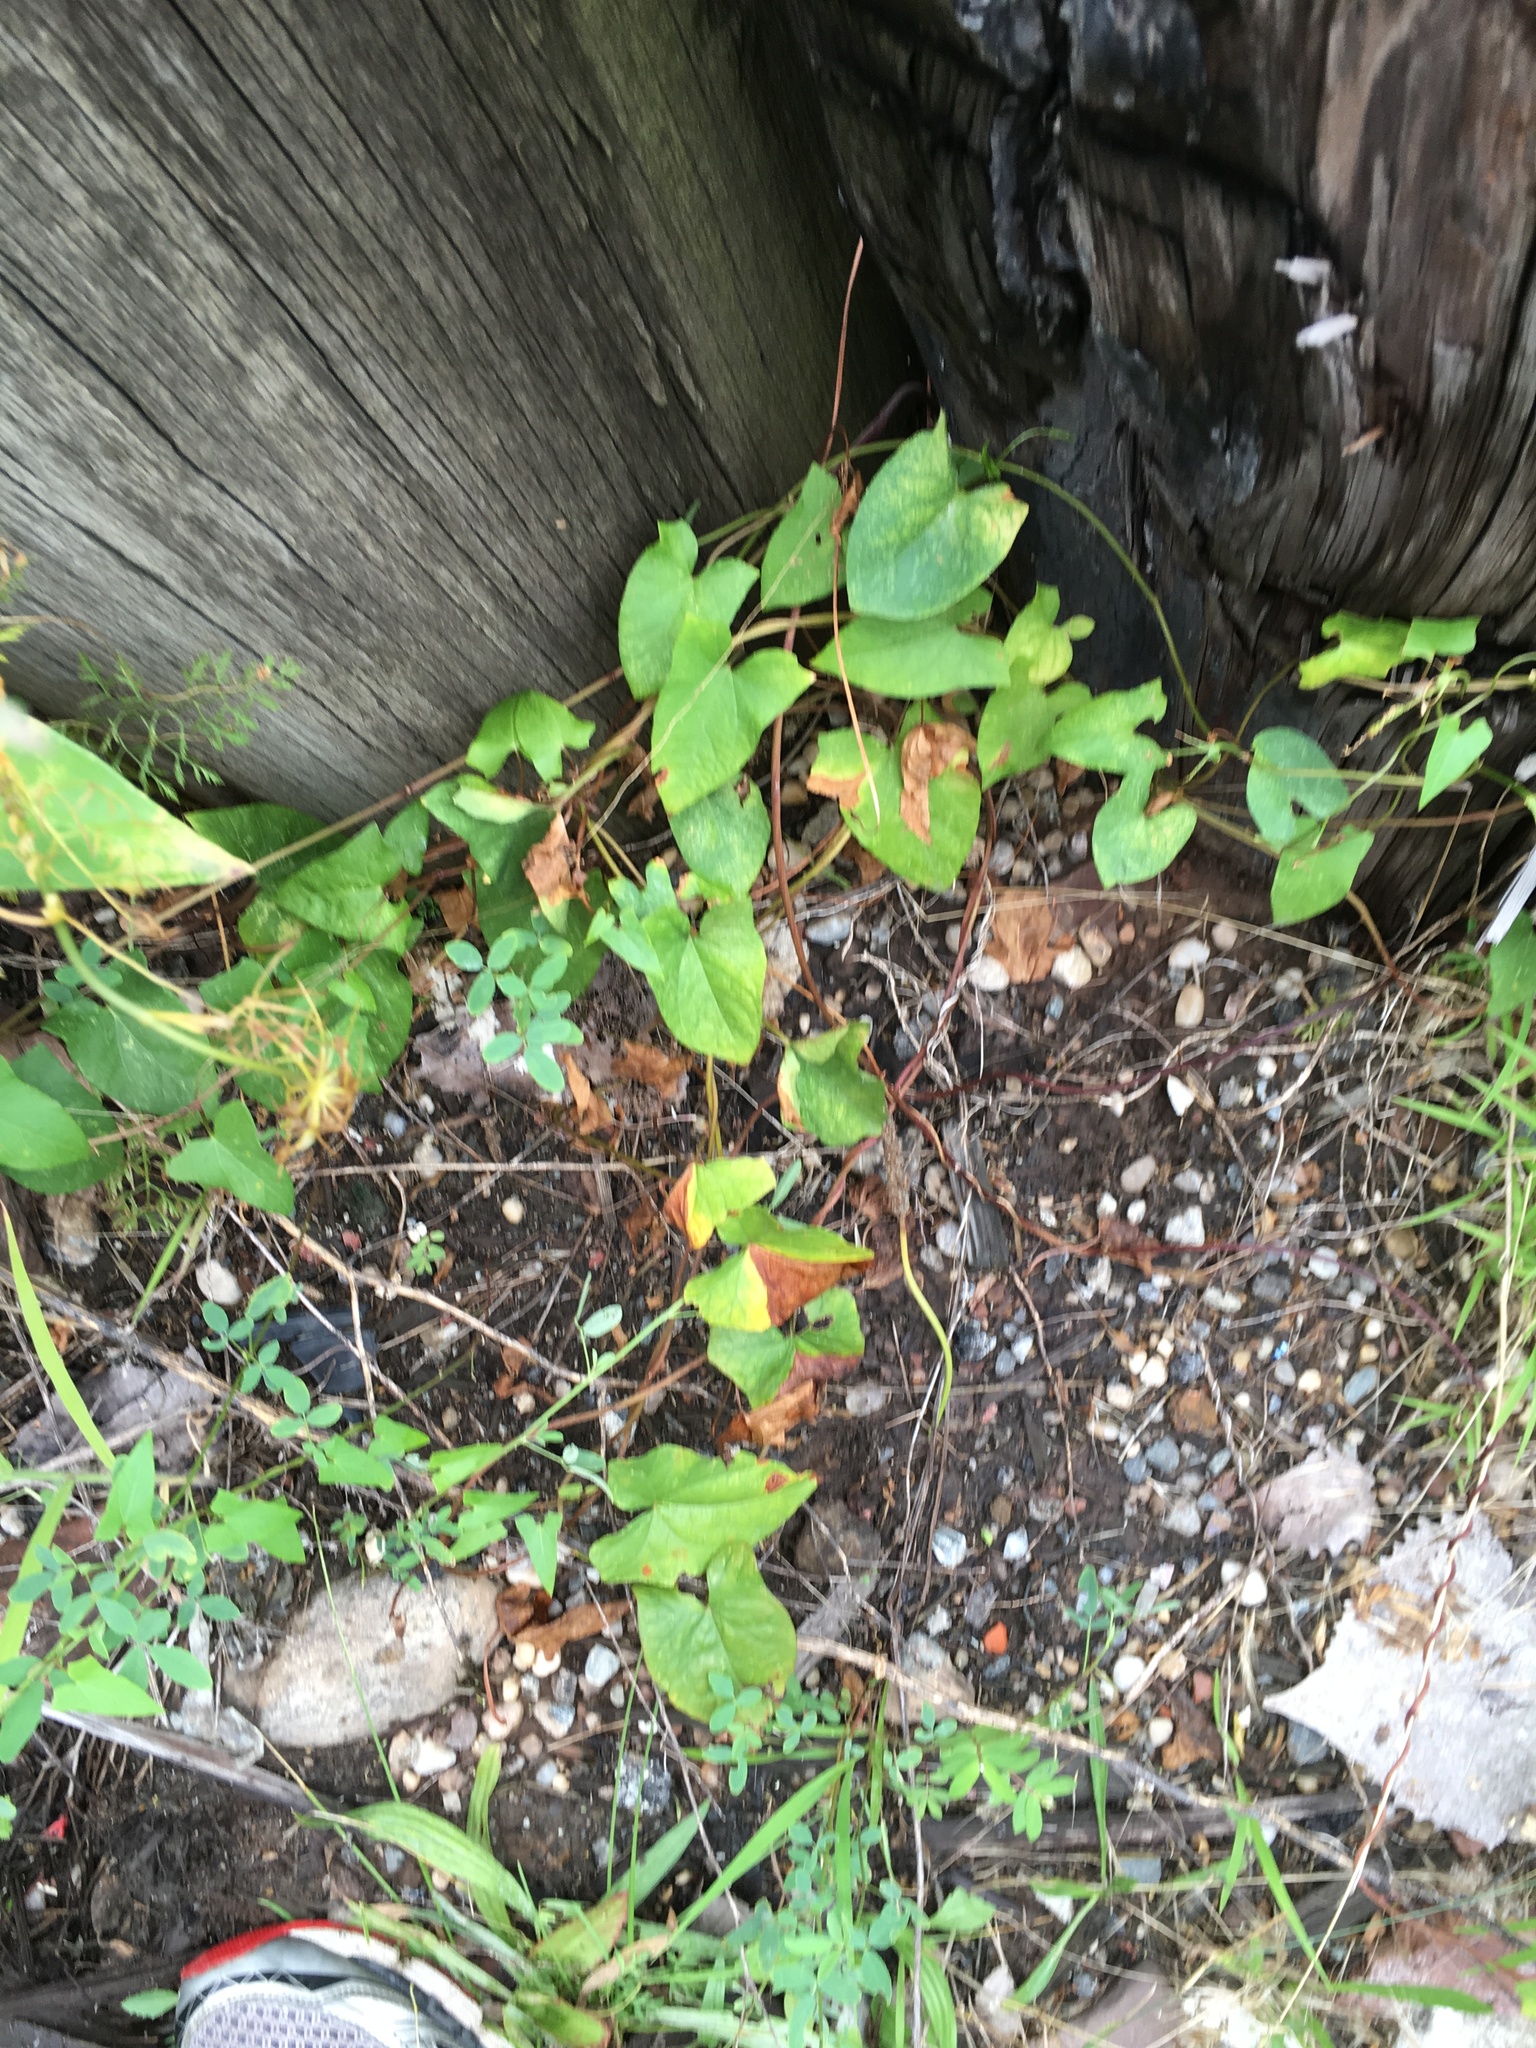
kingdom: Plantae
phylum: Tracheophyta
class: Magnoliopsida
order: Solanales
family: Convolvulaceae
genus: Calystegia
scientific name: Calystegia sepium
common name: Hedge bindweed
